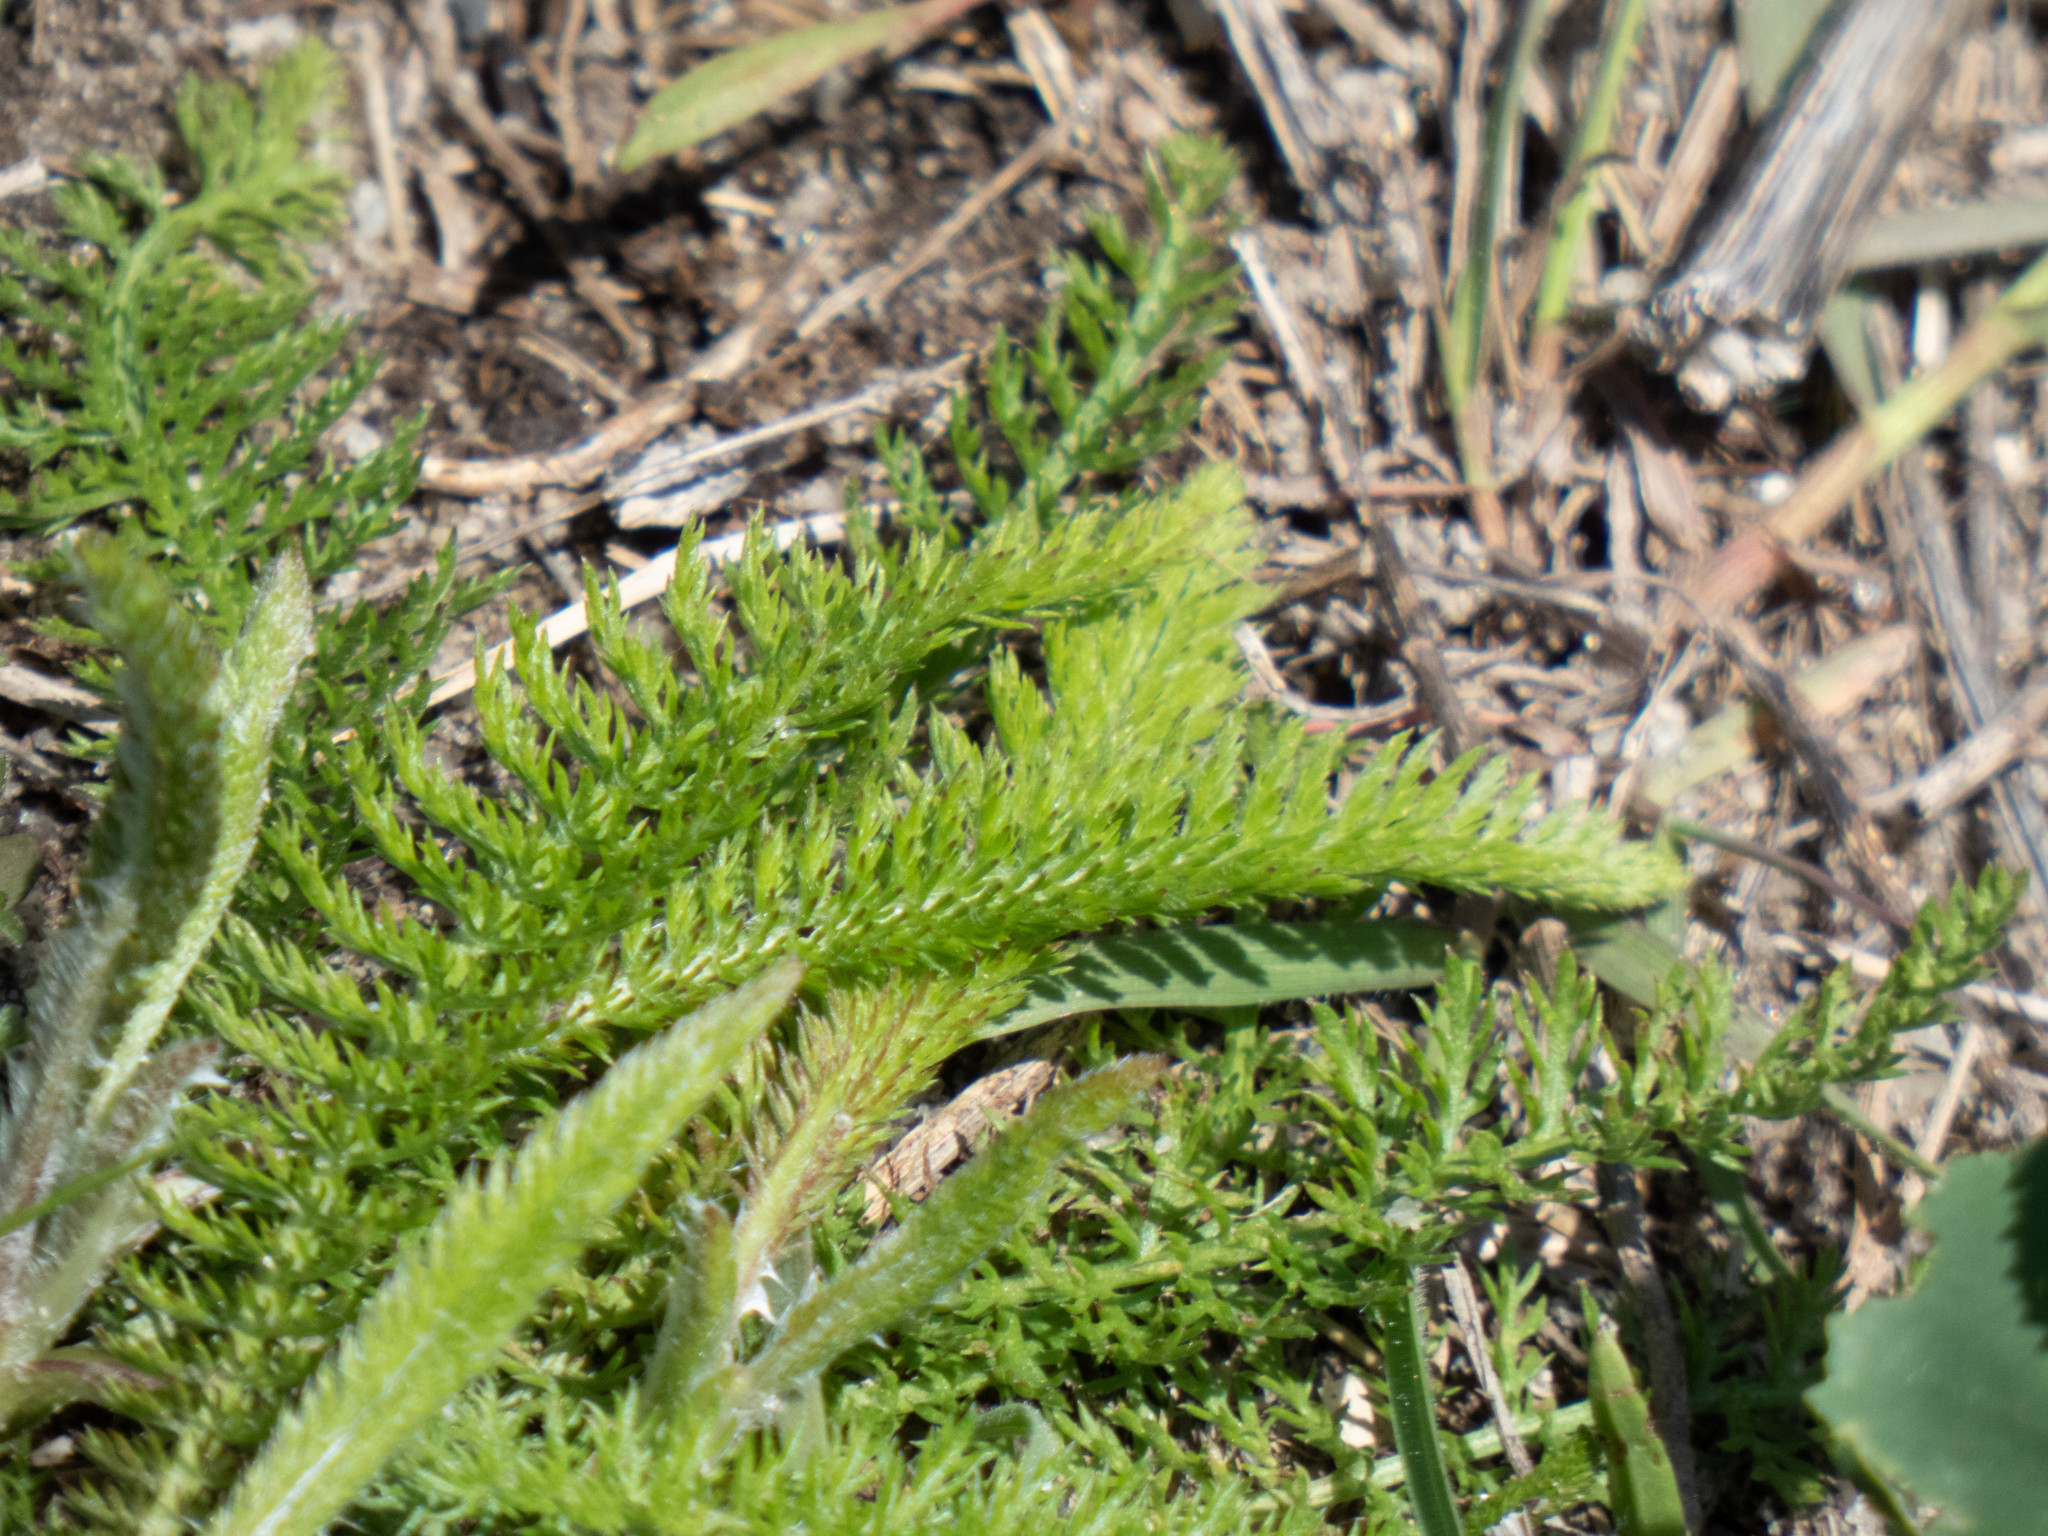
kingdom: Plantae
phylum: Tracheophyta
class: Magnoliopsida
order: Asterales
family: Asteraceae
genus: Achillea
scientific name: Achillea millefolium
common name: Yarrow
